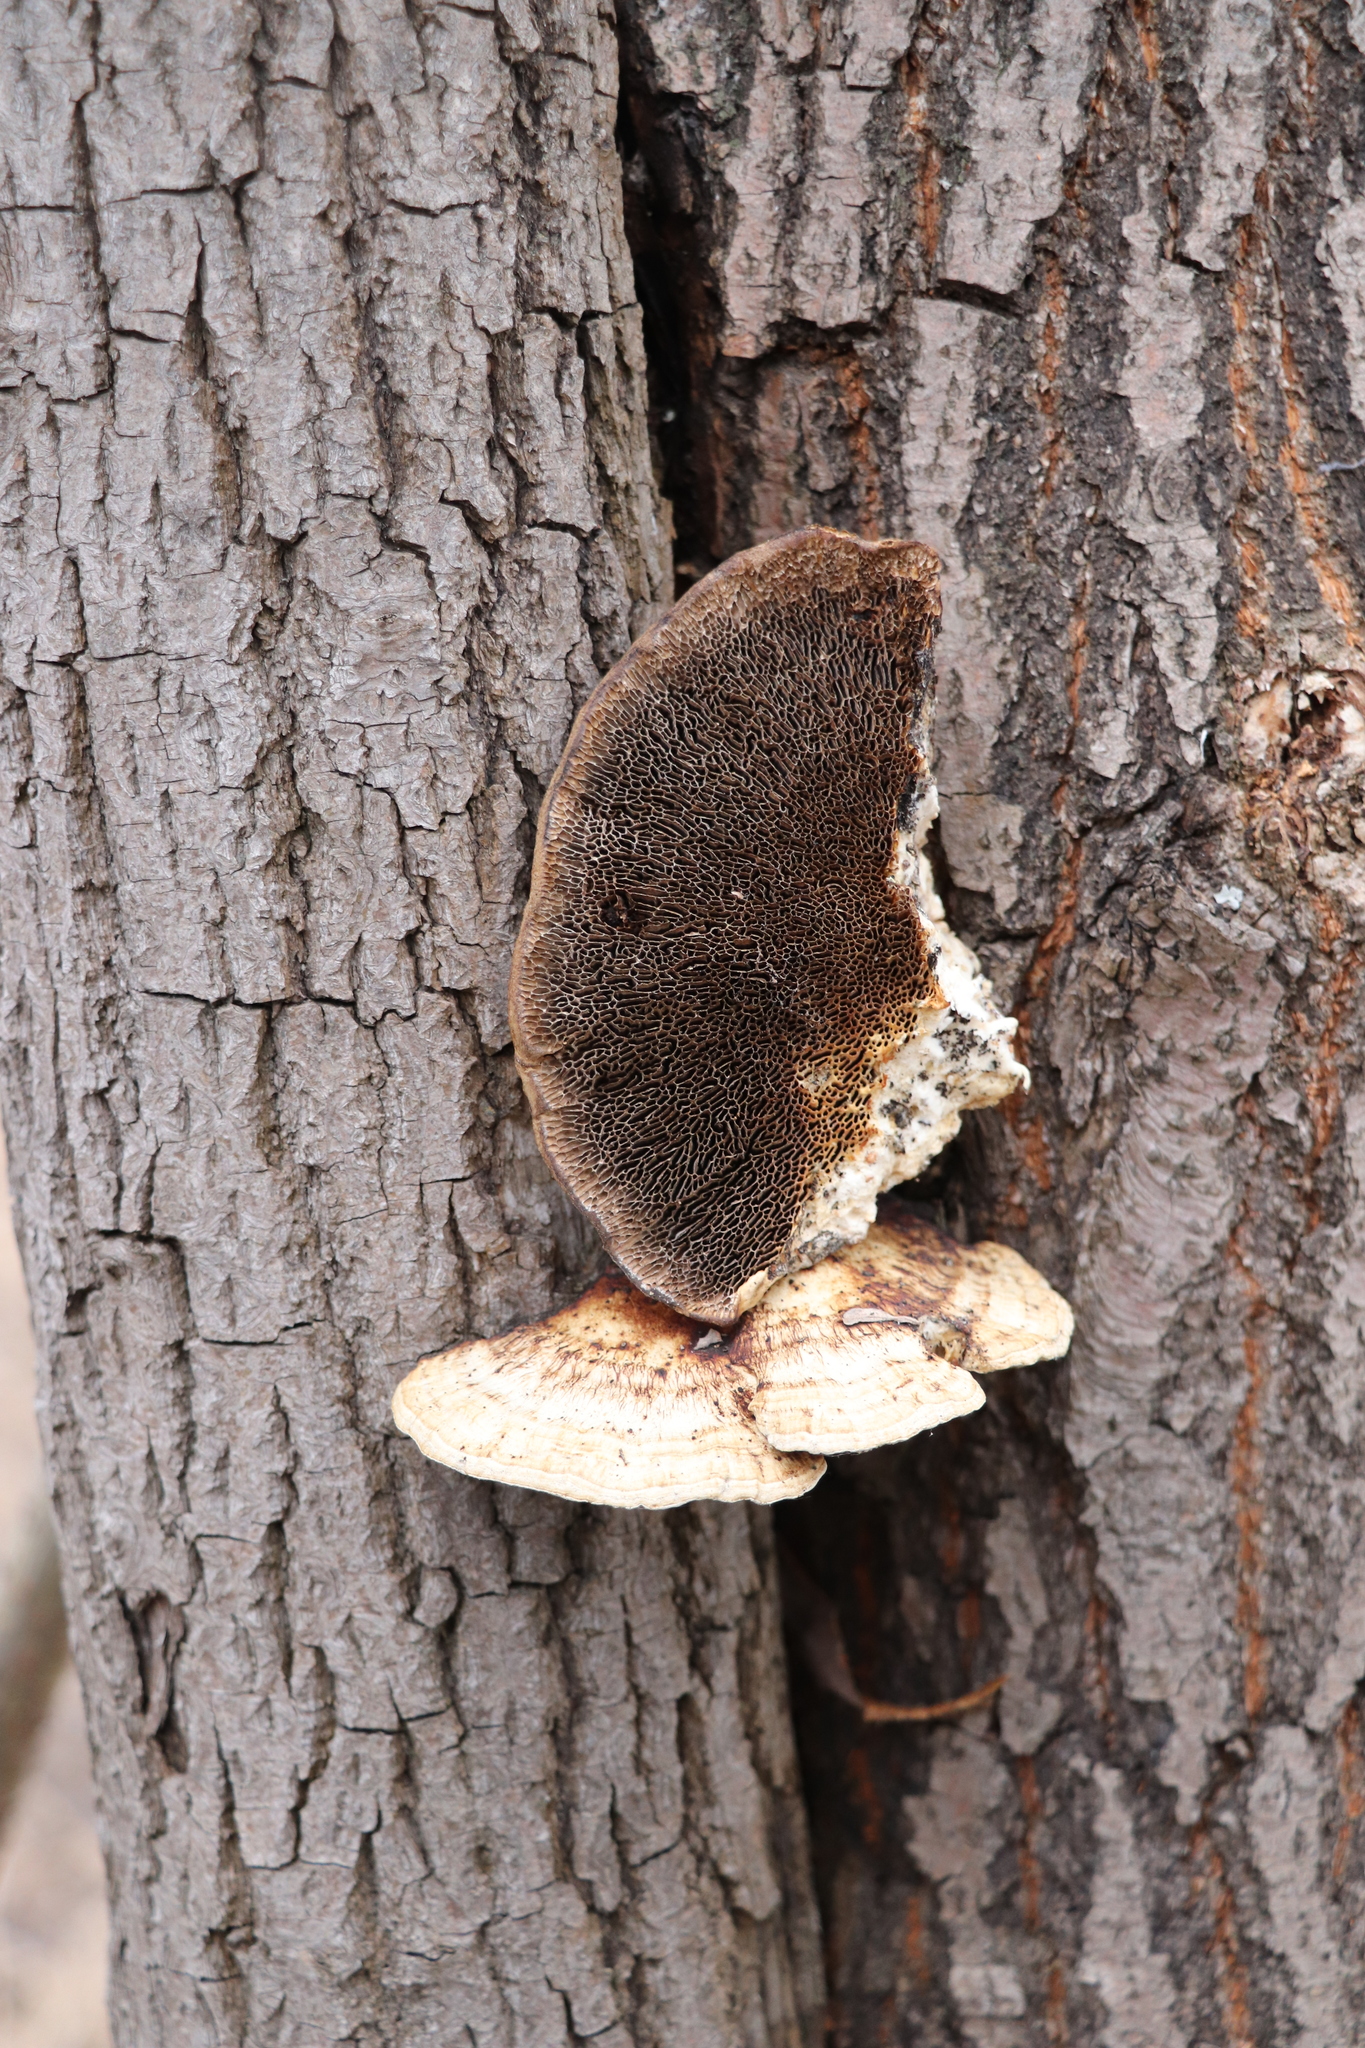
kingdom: Fungi
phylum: Basidiomycota
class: Agaricomycetes
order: Polyporales
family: Polyporaceae
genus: Daedaleopsis
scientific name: Daedaleopsis confragosa
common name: Blushing bracket
